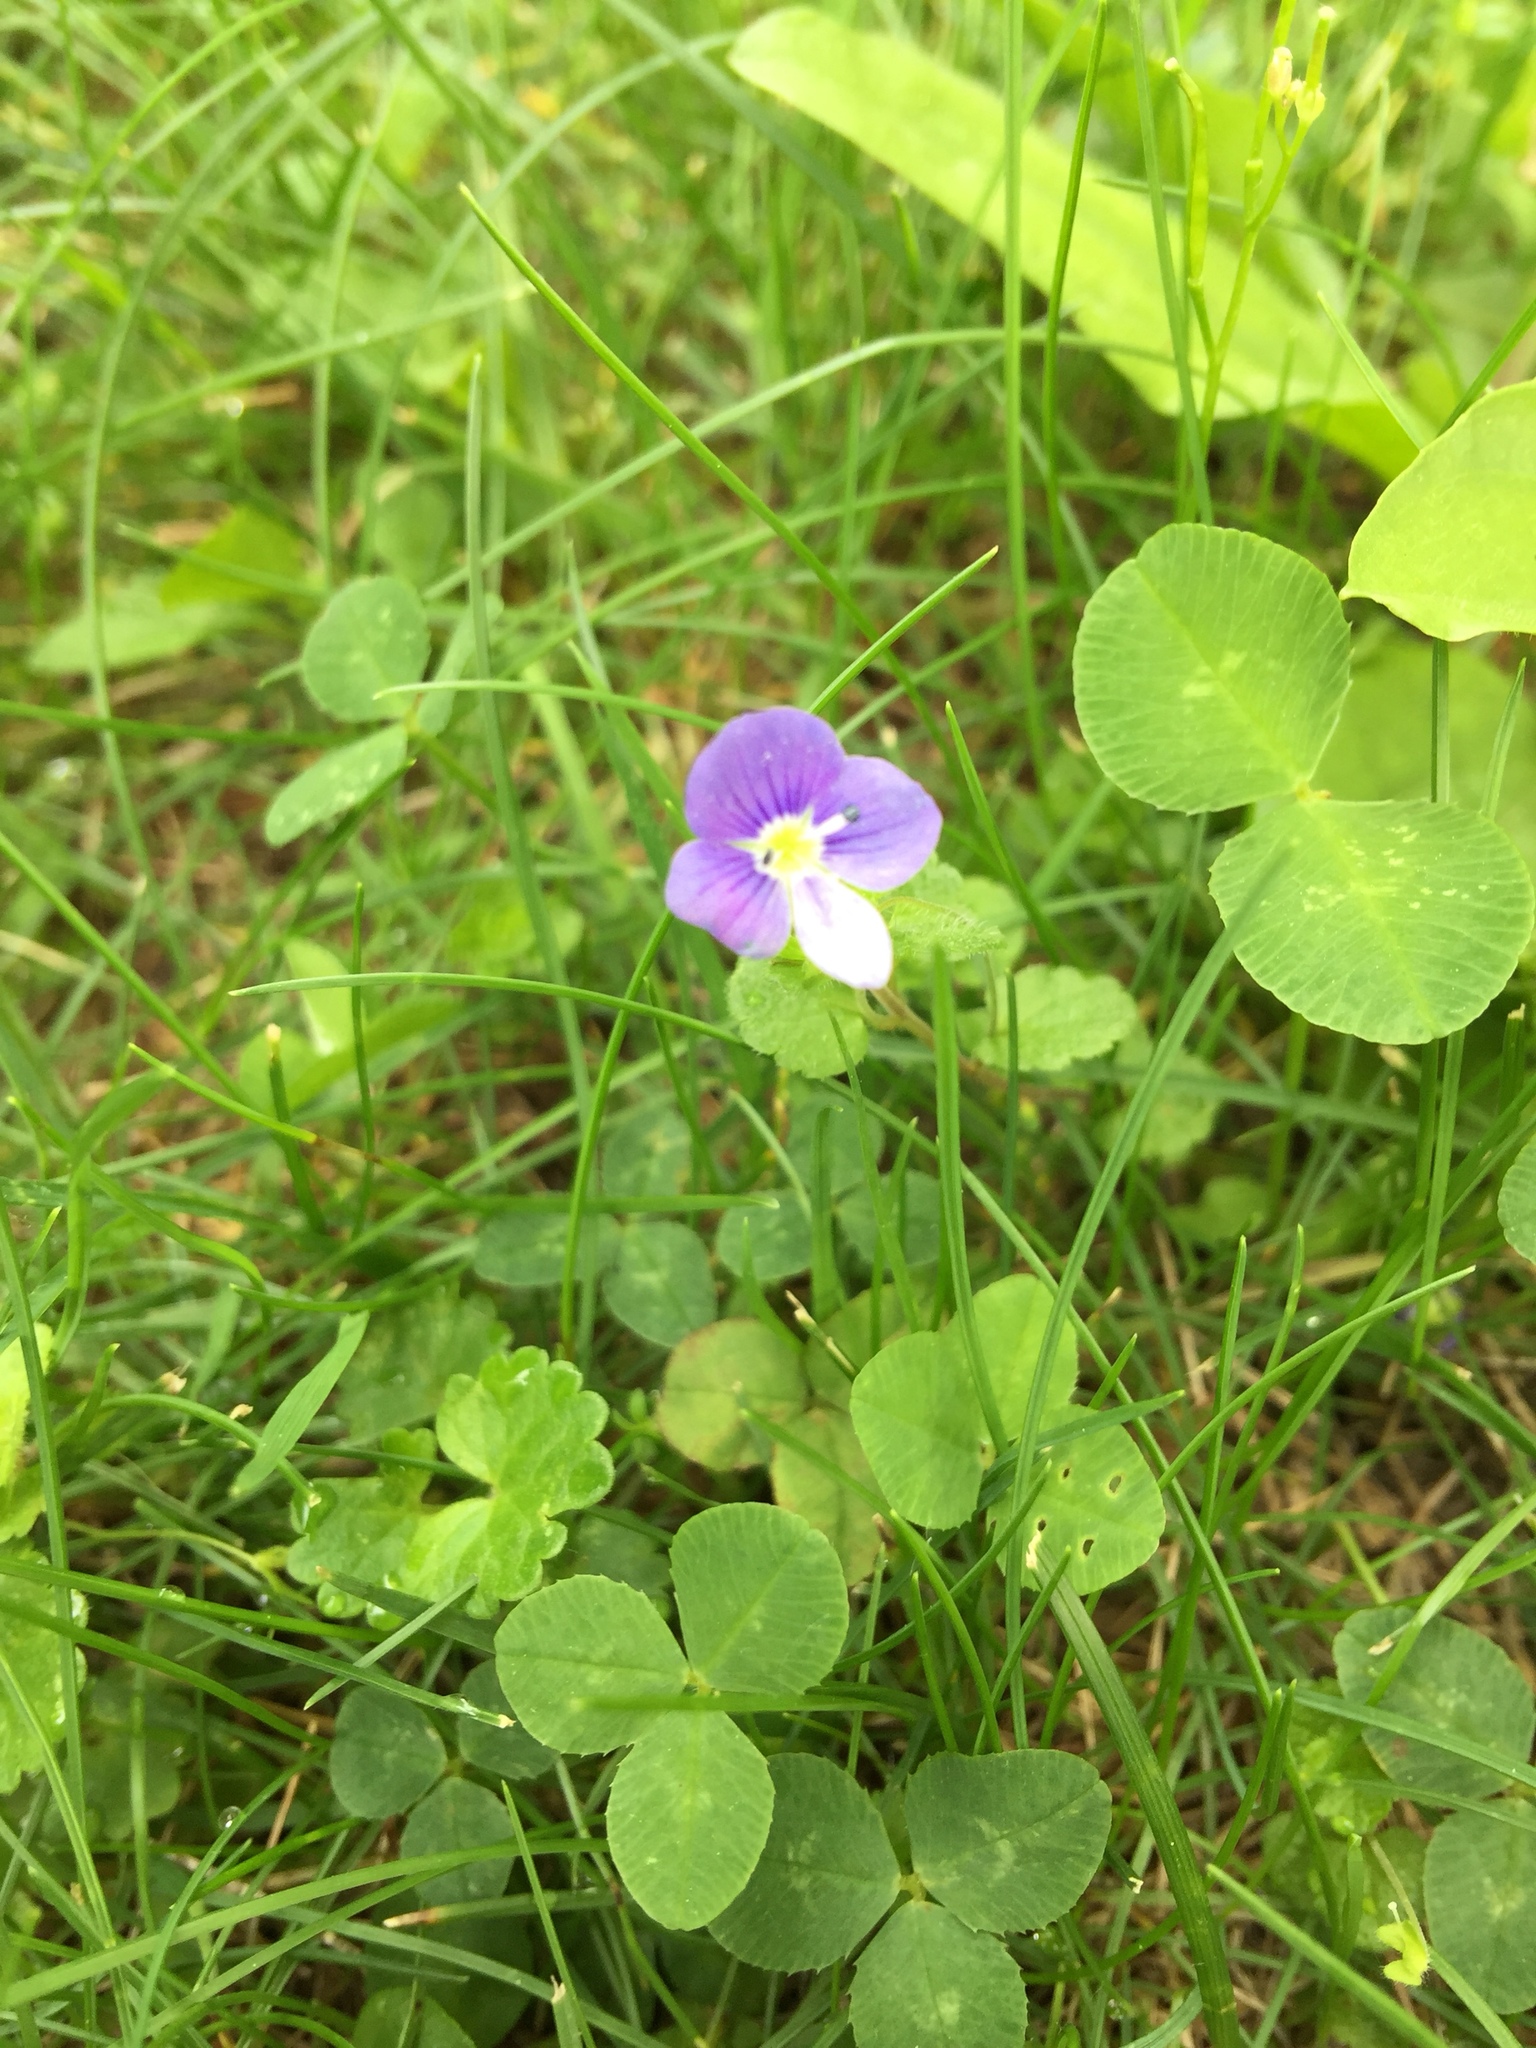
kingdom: Plantae
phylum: Tracheophyta
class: Magnoliopsida
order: Lamiales
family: Plantaginaceae
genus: Veronica
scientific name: Veronica filiformis
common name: Slender speedwell
